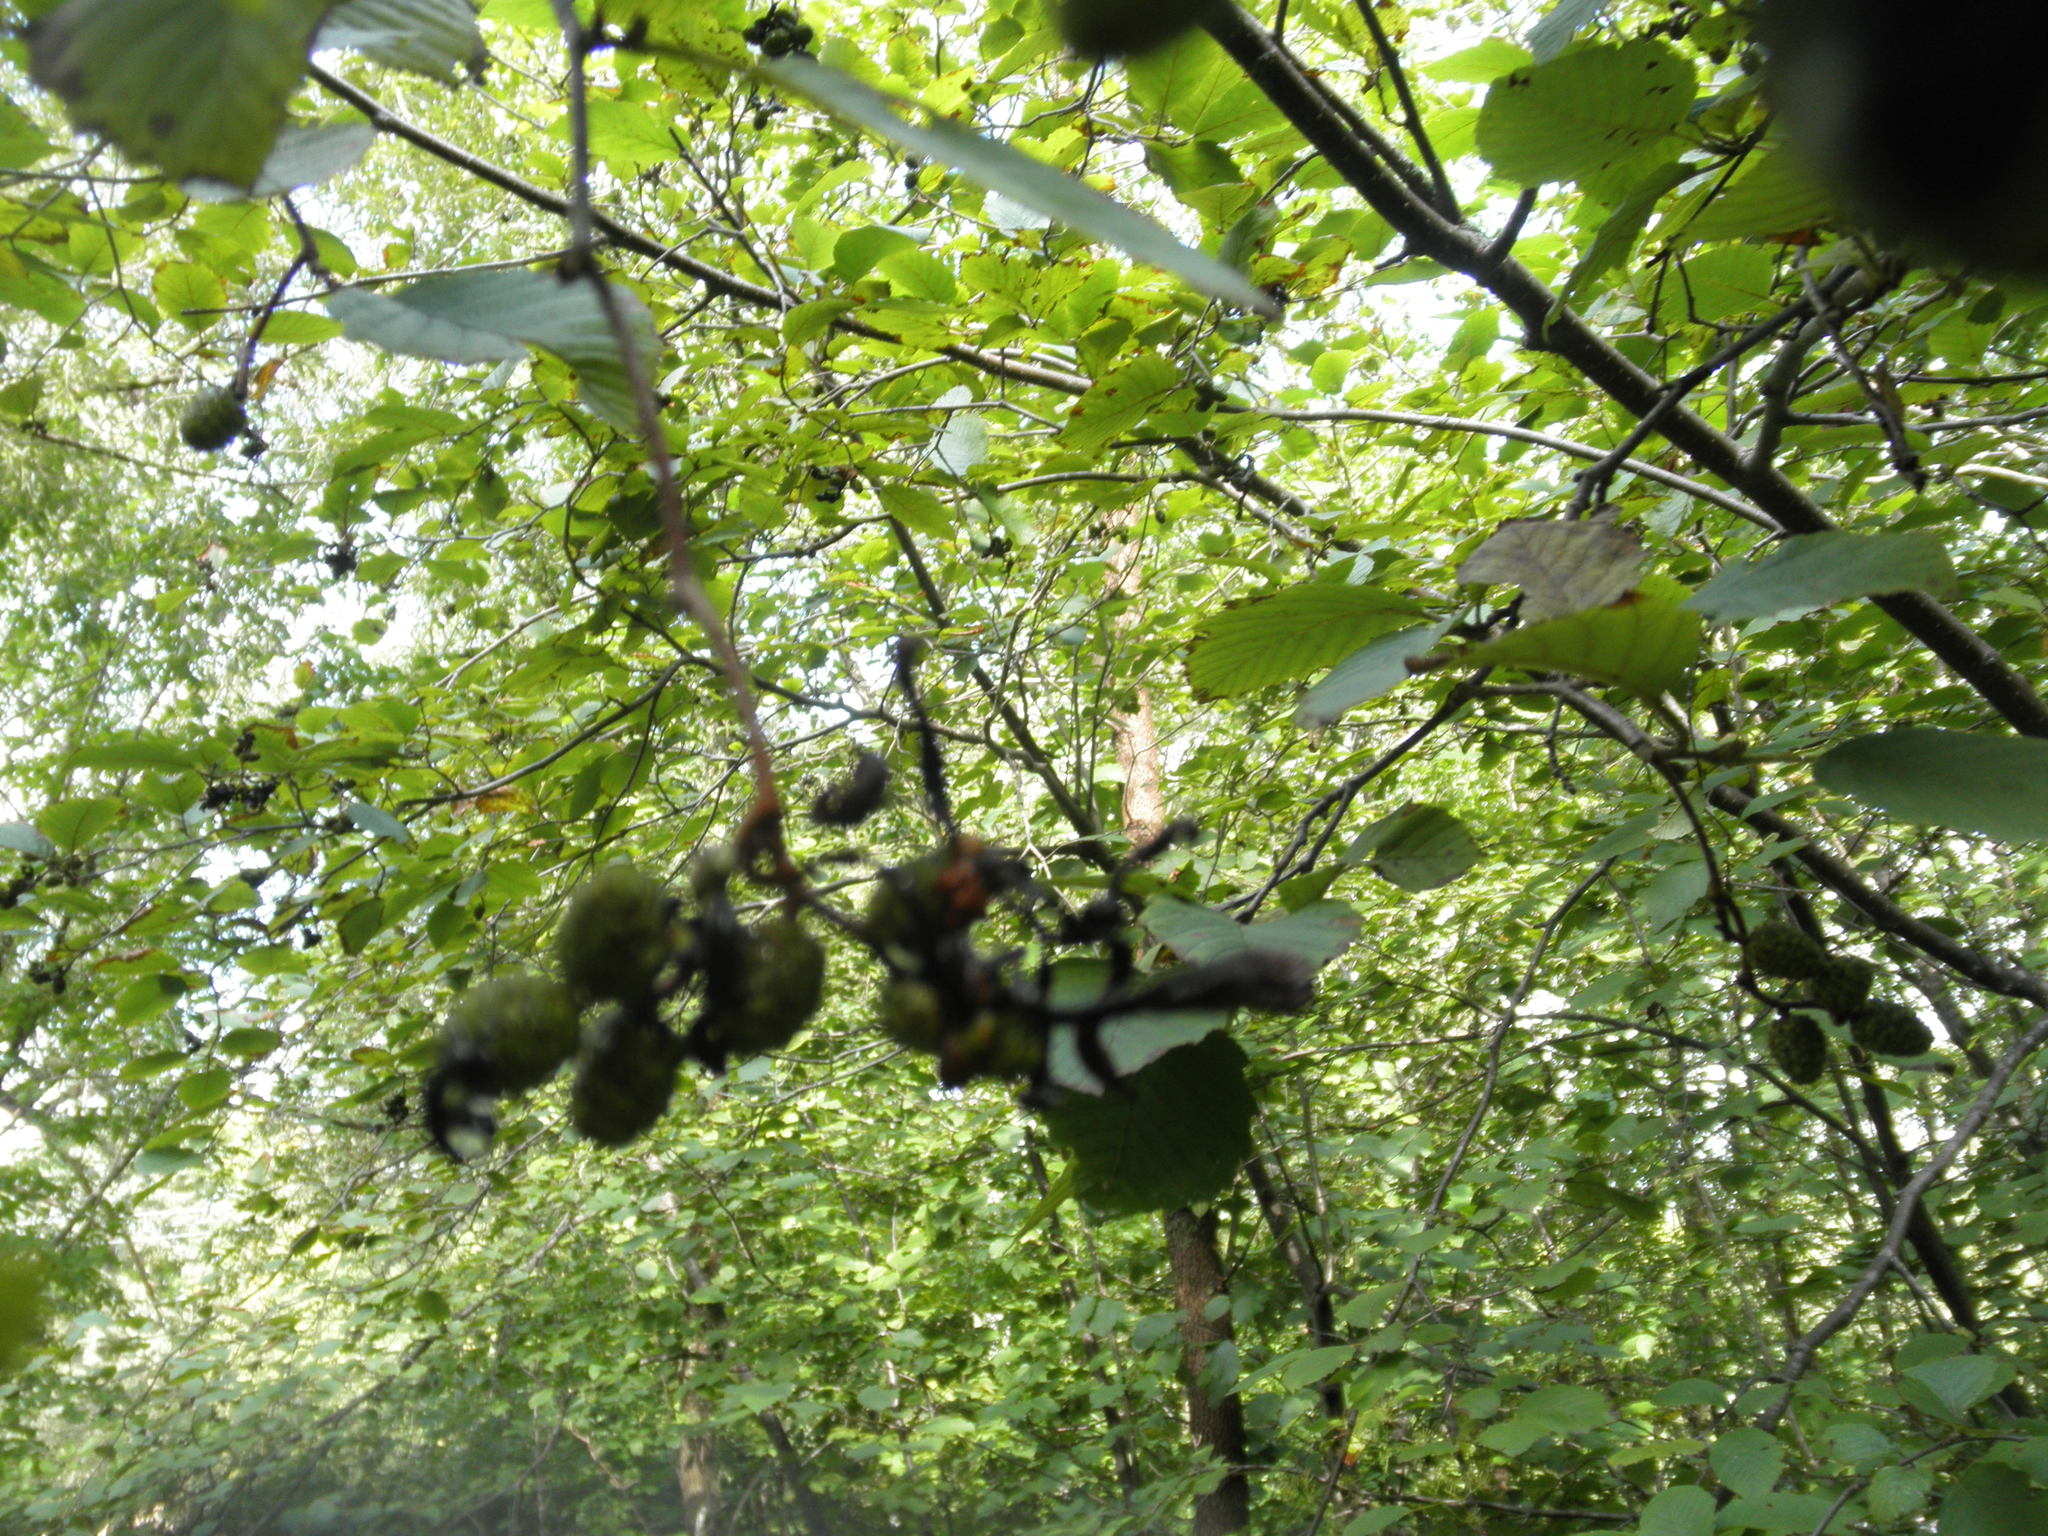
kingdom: Fungi
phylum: Ascomycota
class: Taphrinomycetes
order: Taphrinales
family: Taphrinaceae
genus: Taphrina
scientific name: Taphrina robinsoniana
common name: Eastern american alder tongue gall fungus
